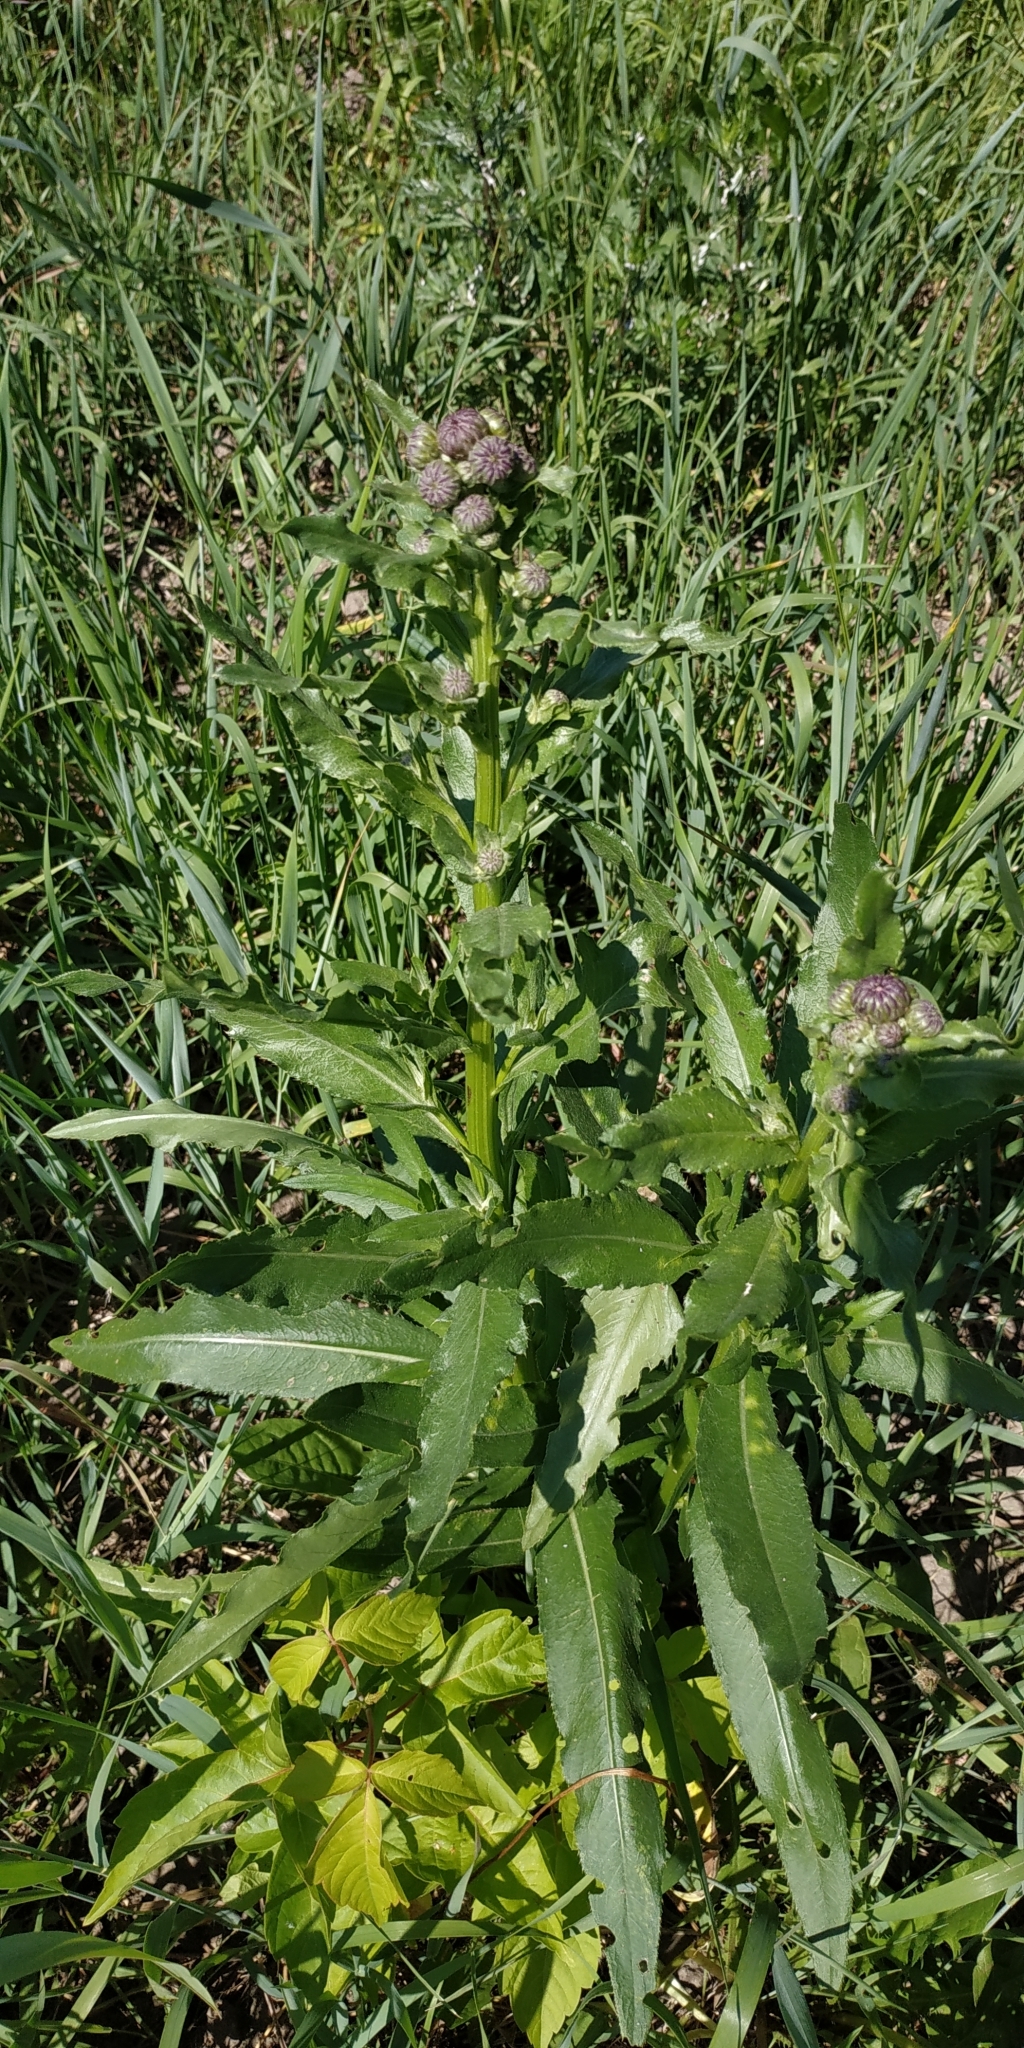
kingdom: Plantae
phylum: Tracheophyta
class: Magnoliopsida
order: Asterales
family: Asteraceae
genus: Cirsium
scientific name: Cirsium arvense
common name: Creeping thistle
